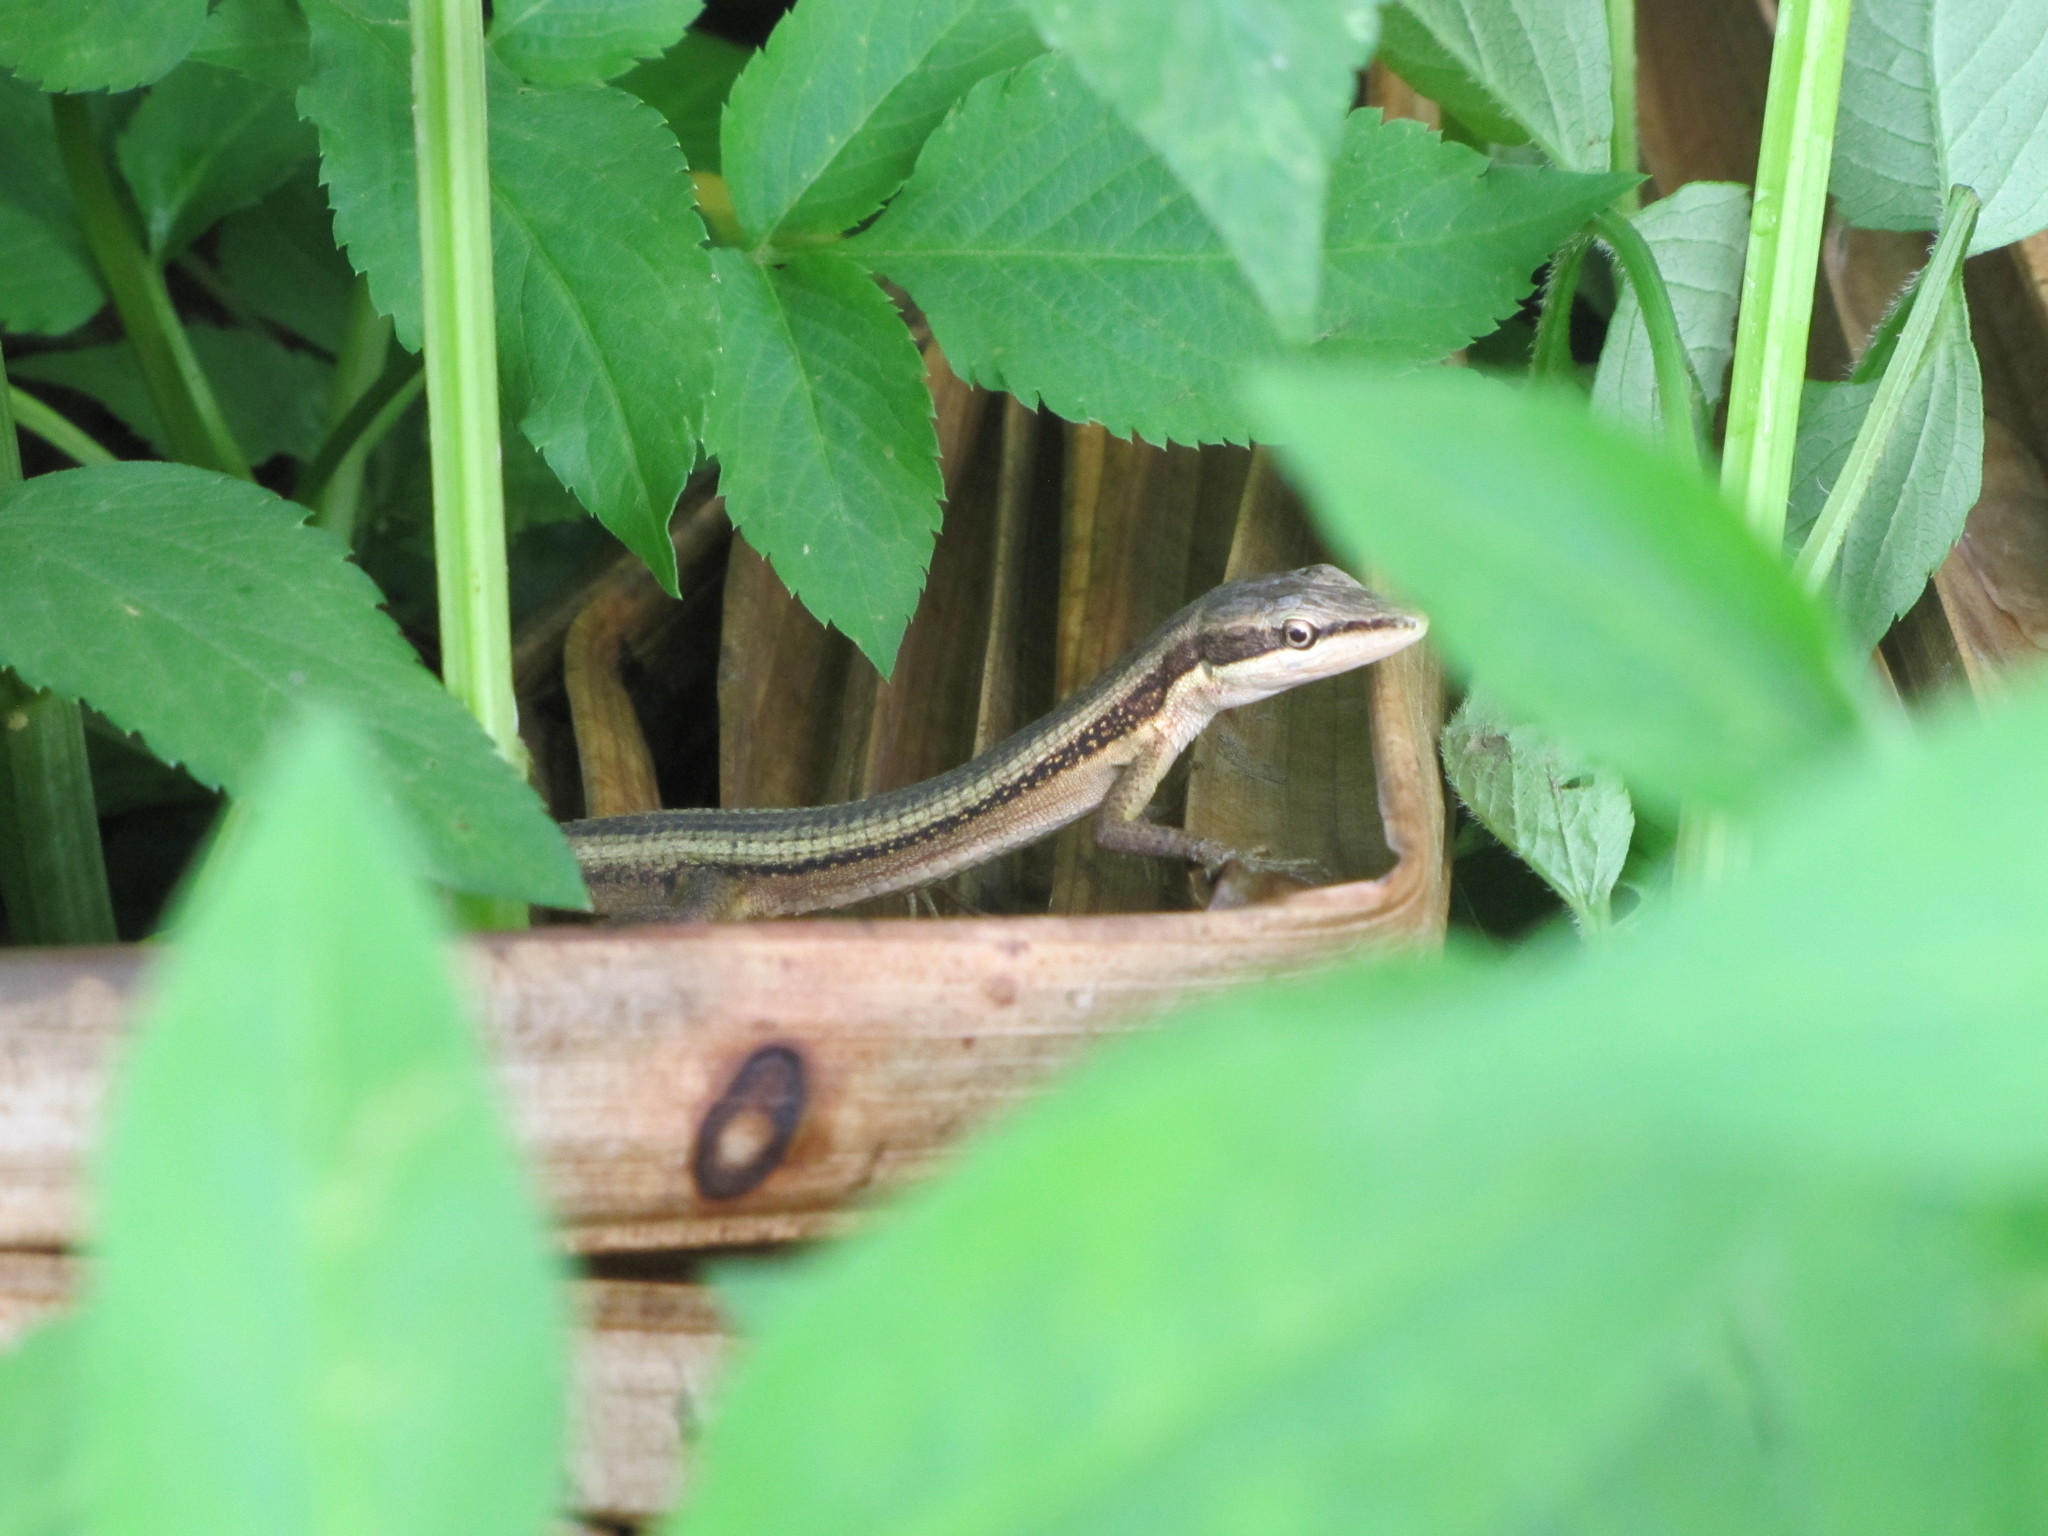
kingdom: Animalia
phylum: Chordata
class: Squamata
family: Lacertidae
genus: Takydromus
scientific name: Takydromus kuehnei
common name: Kuhne’s grass lizard
